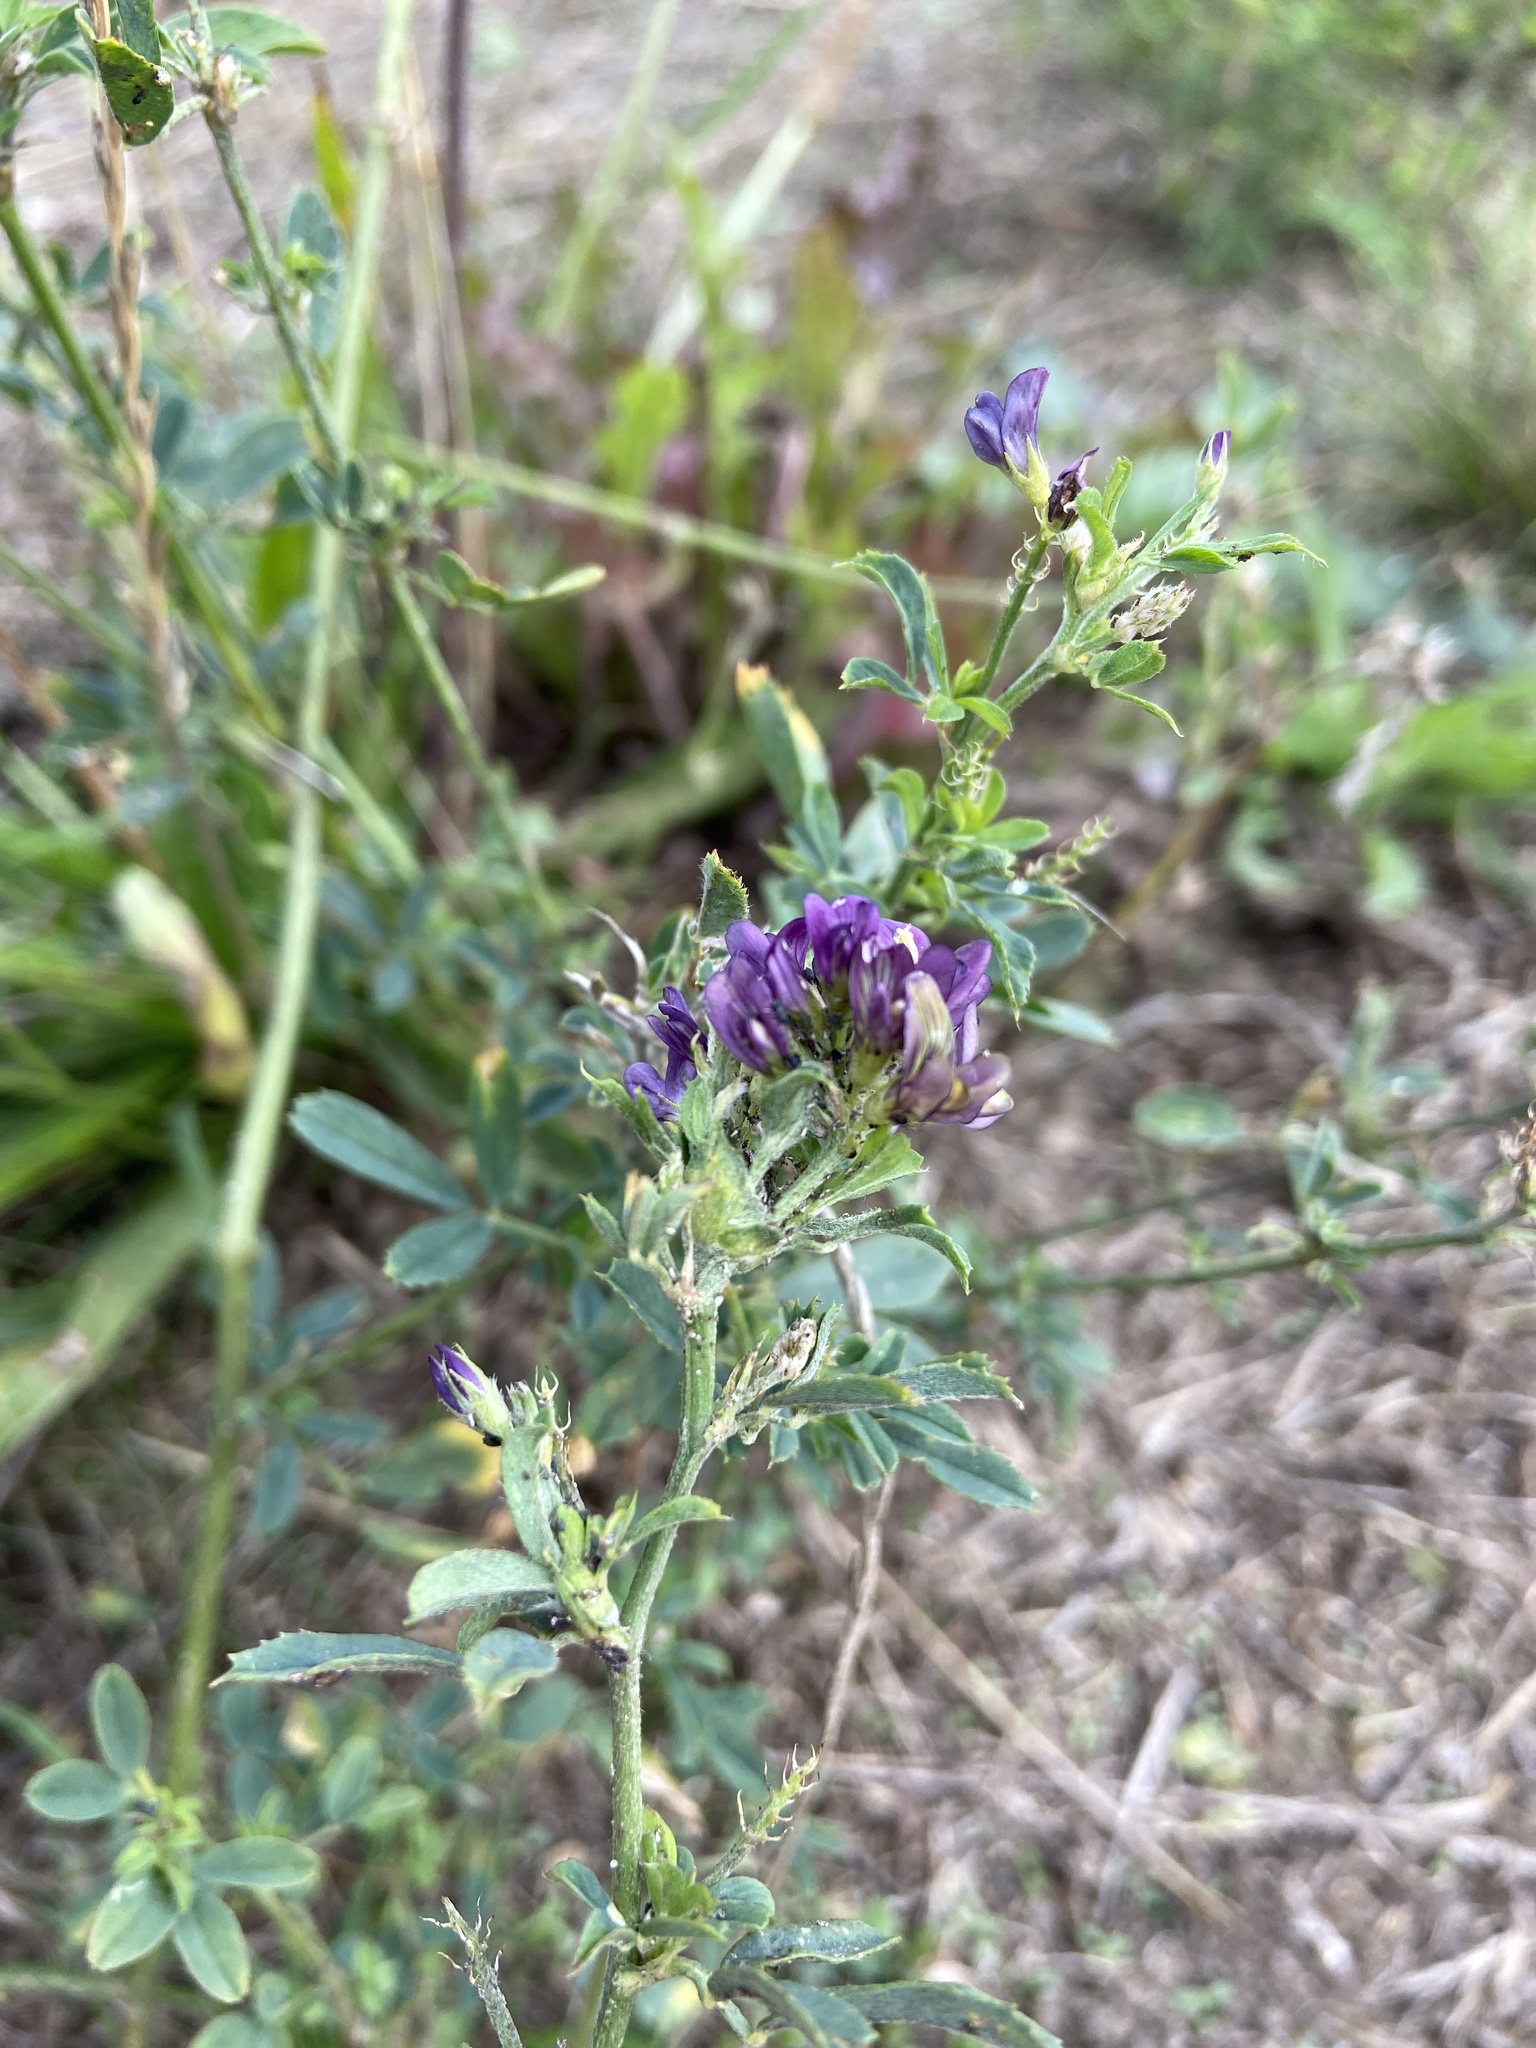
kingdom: Plantae
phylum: Tracheophyta
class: Magnoliopsida
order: Fabales
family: Fabaceae
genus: Medicago
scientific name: Medicago sativa
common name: Alfalfa
